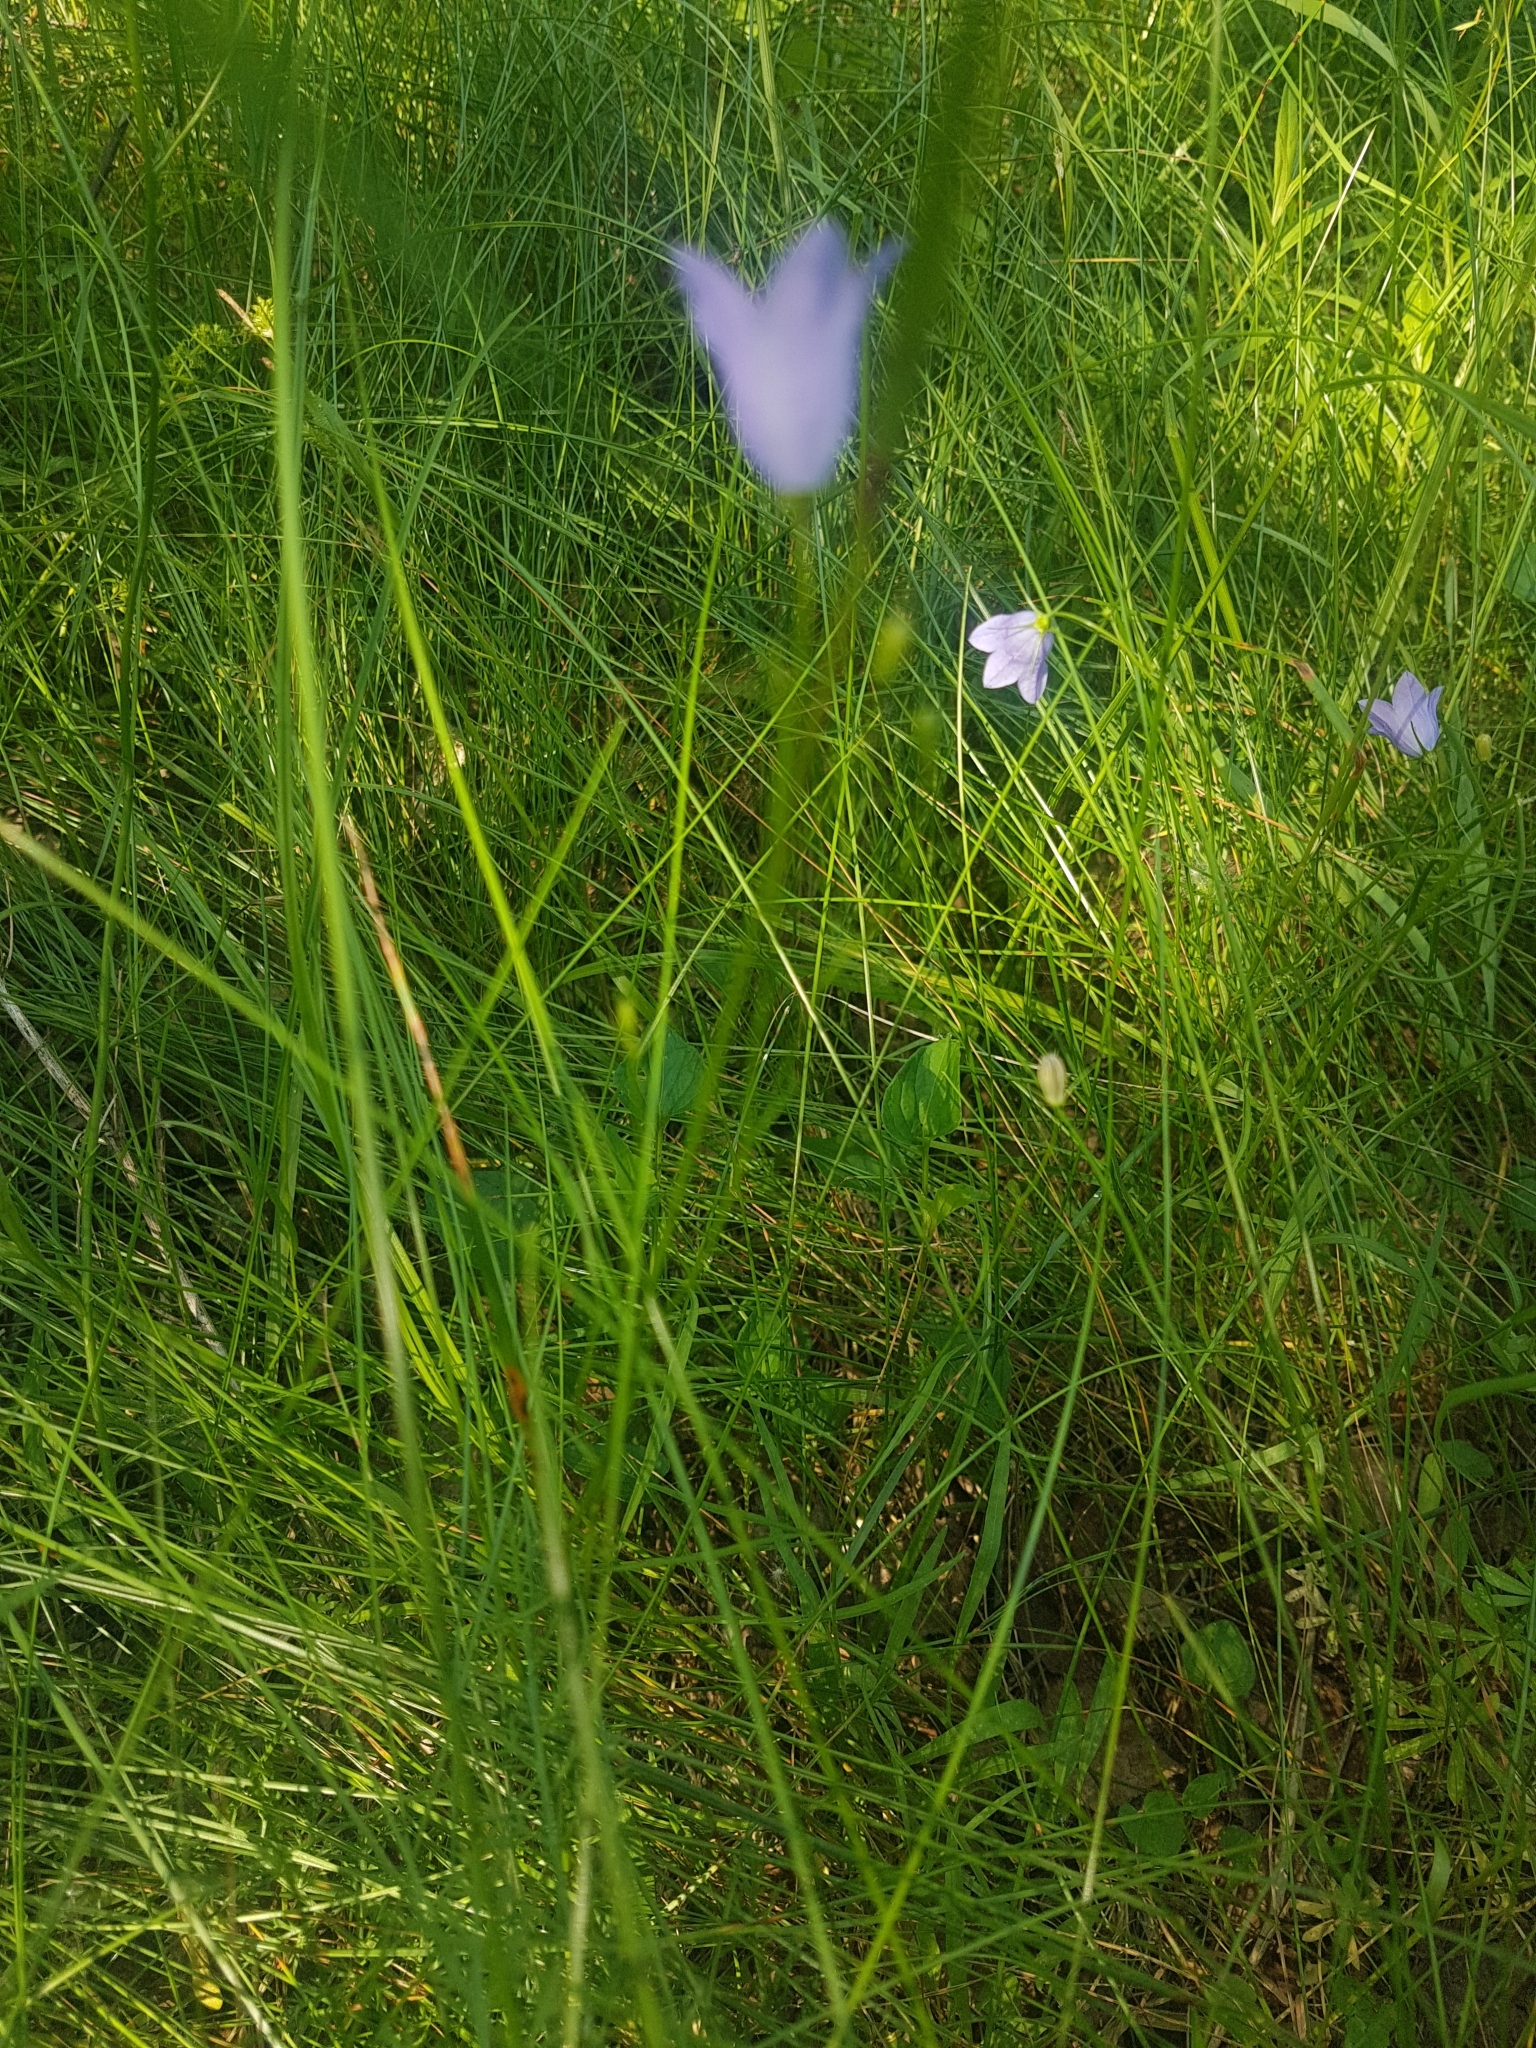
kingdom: Plantae
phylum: Tracheophyta
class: Magnoliopsida
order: Asterales
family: Campanulaceae
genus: Campanula
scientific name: Campanula rotundifolia
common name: Harebell
